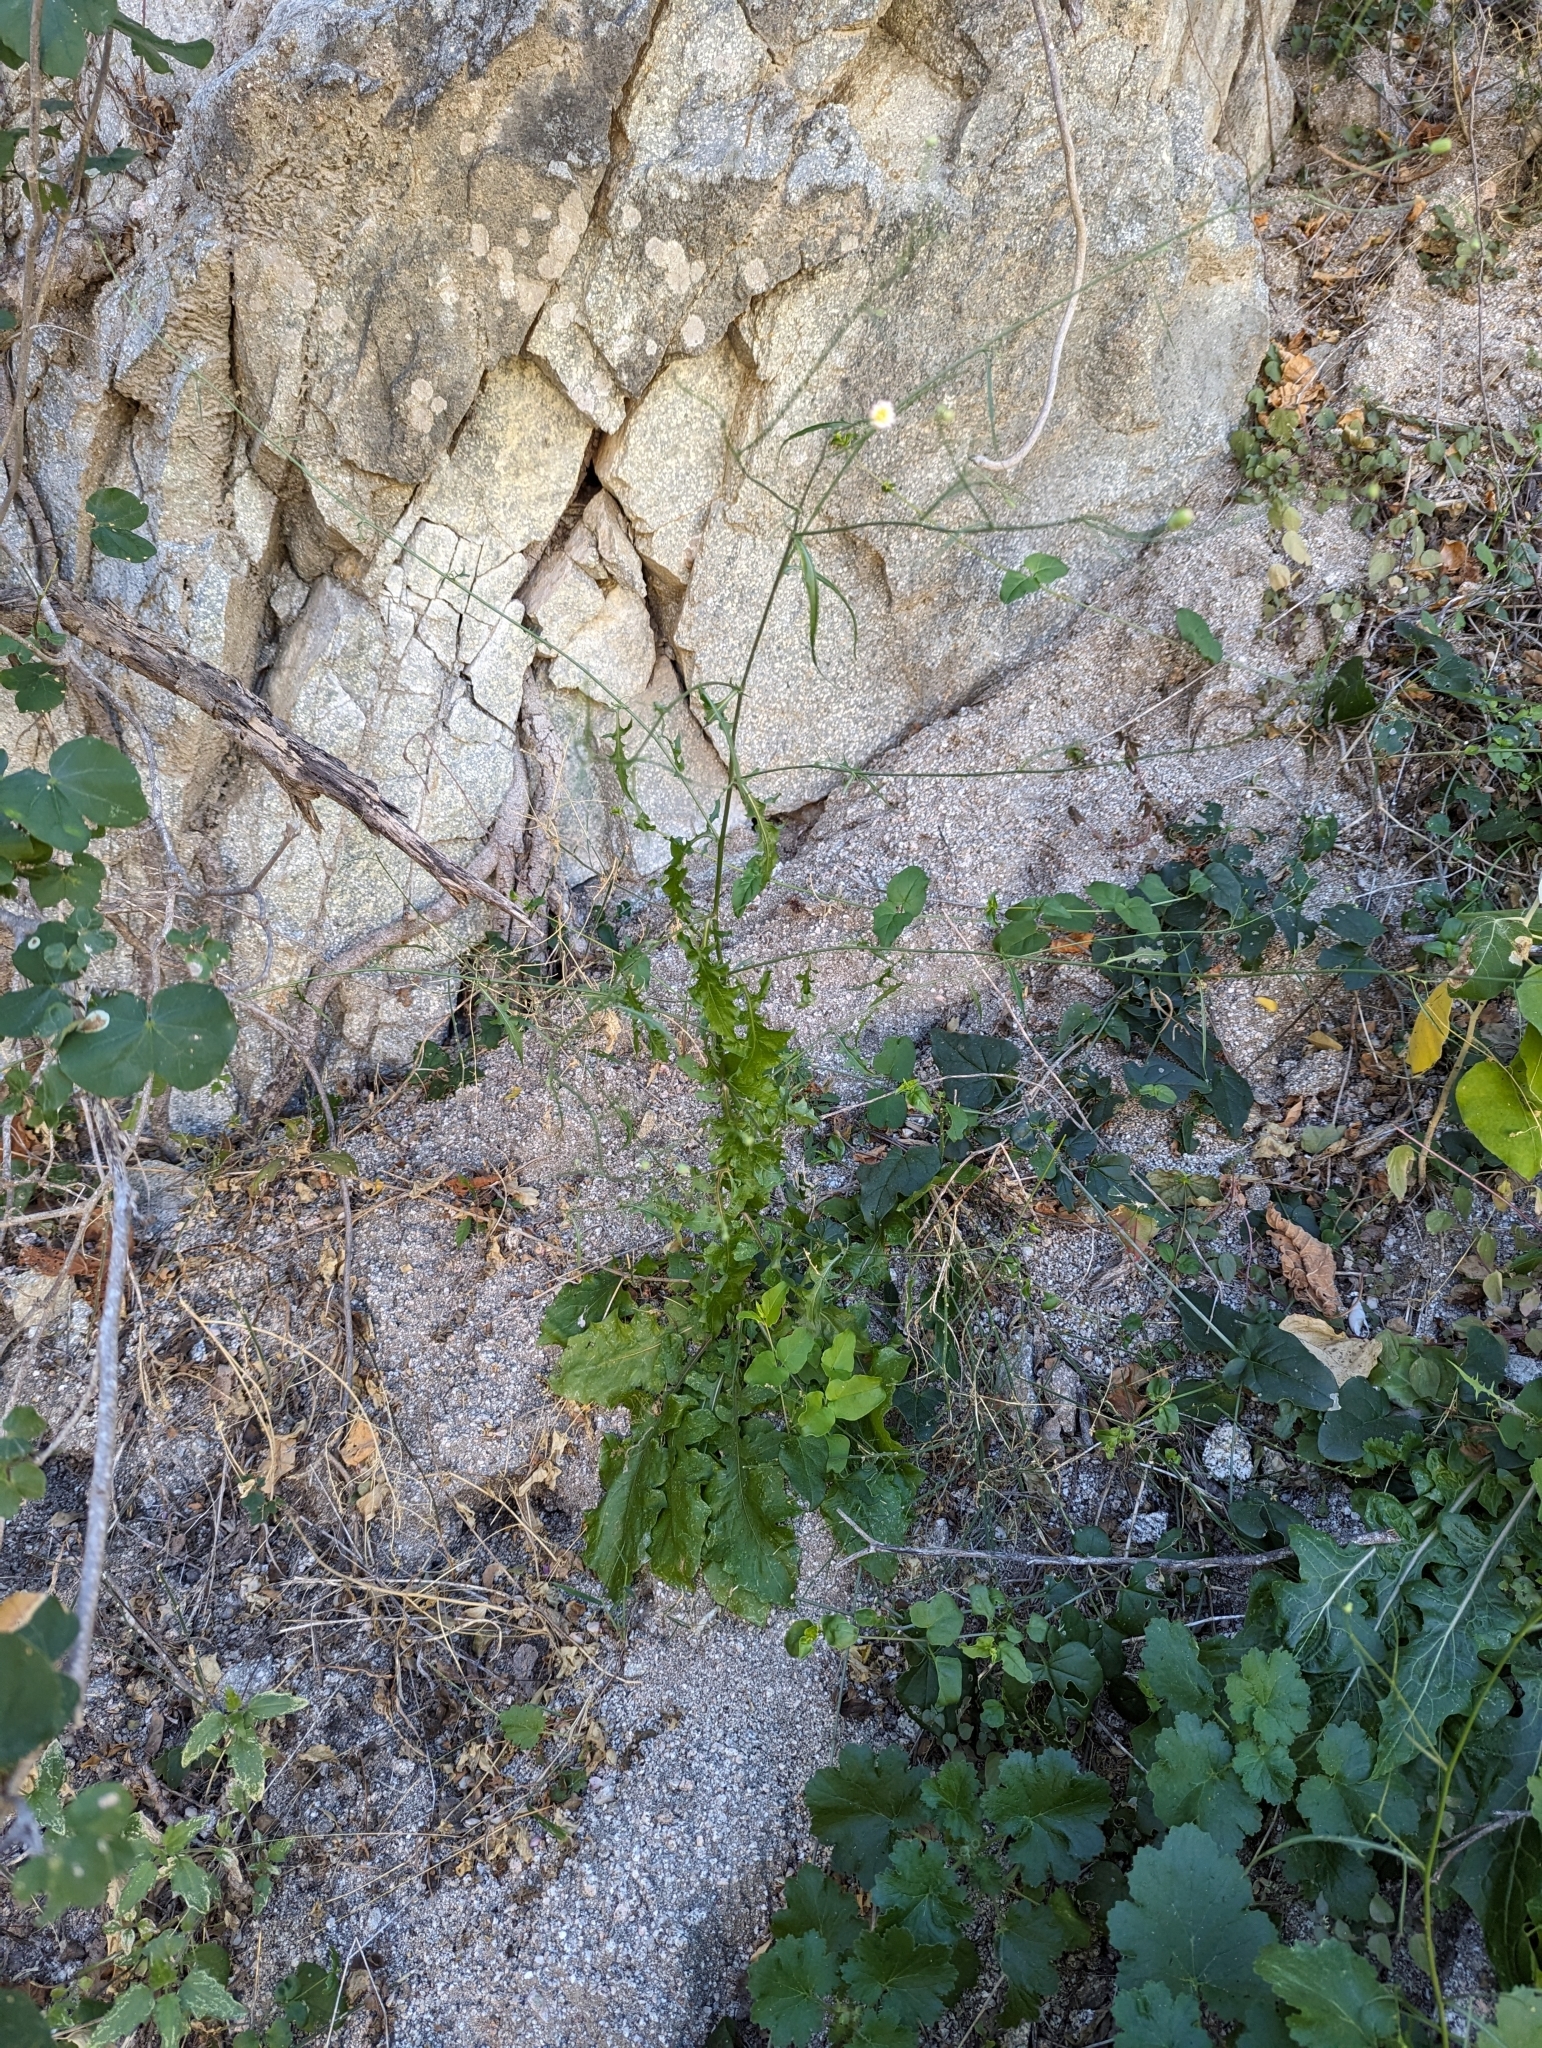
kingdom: Plantae
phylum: Tracheophyta
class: Magnoliopsida
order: Asterales
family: Asteraceae
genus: Malacothrix
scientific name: Malacothrix xanti
